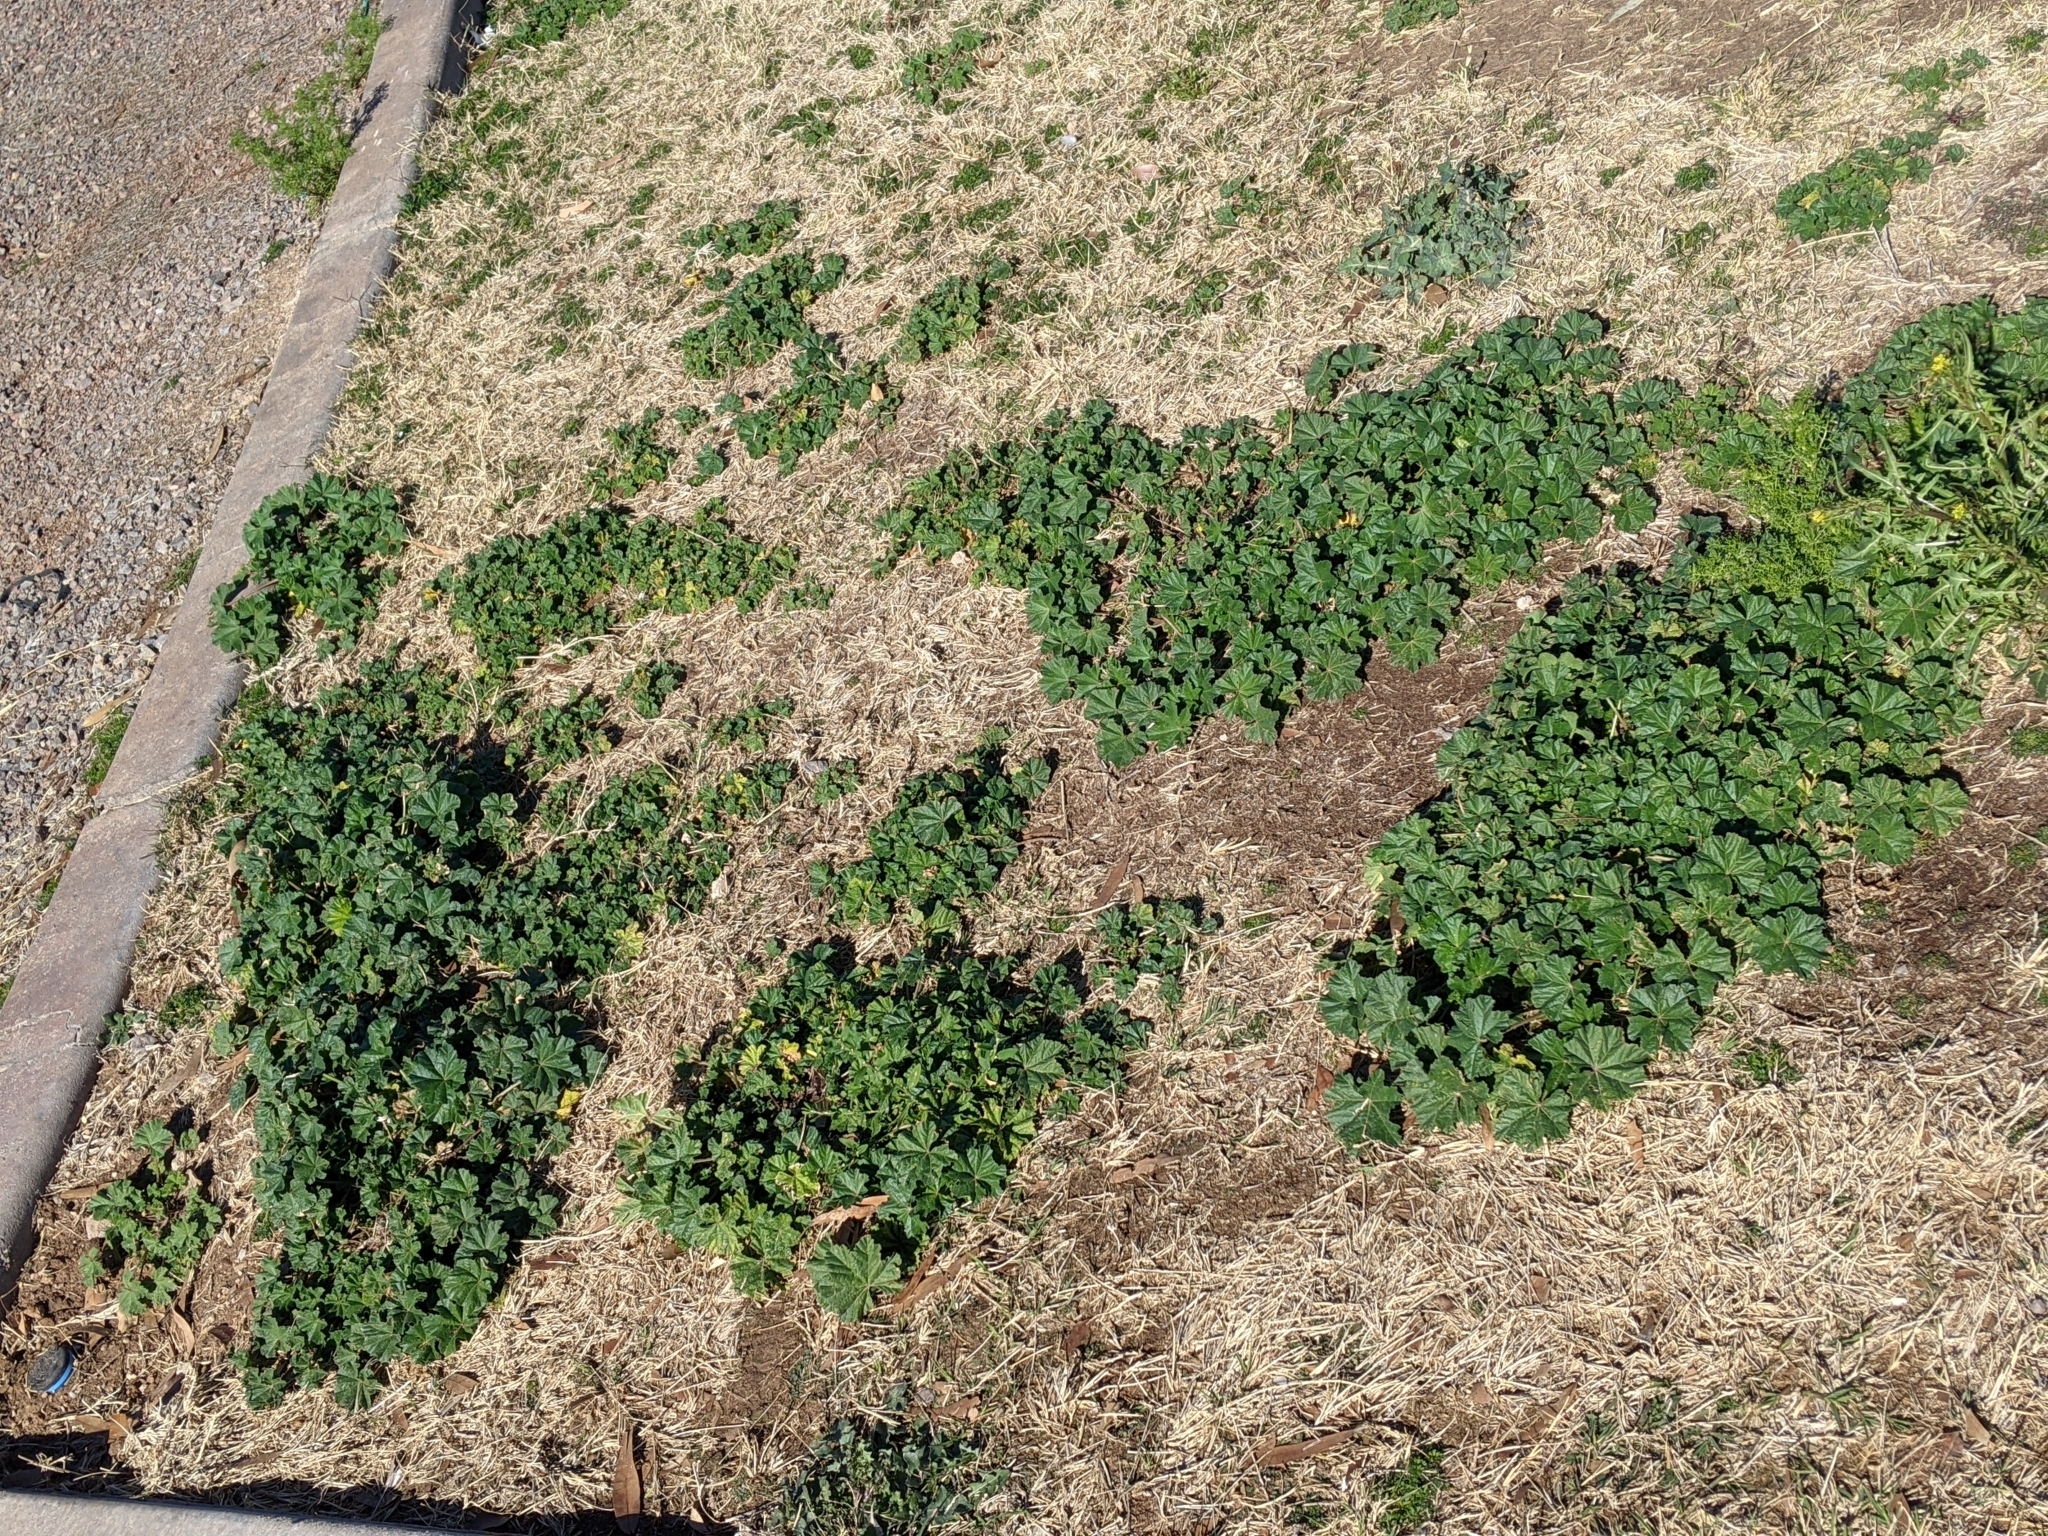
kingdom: Plantae
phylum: Tracheophyta
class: Magnoliopsida
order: Malvales
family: Malvaceae
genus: Malva
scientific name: Malva parviflora
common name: Least mallow
